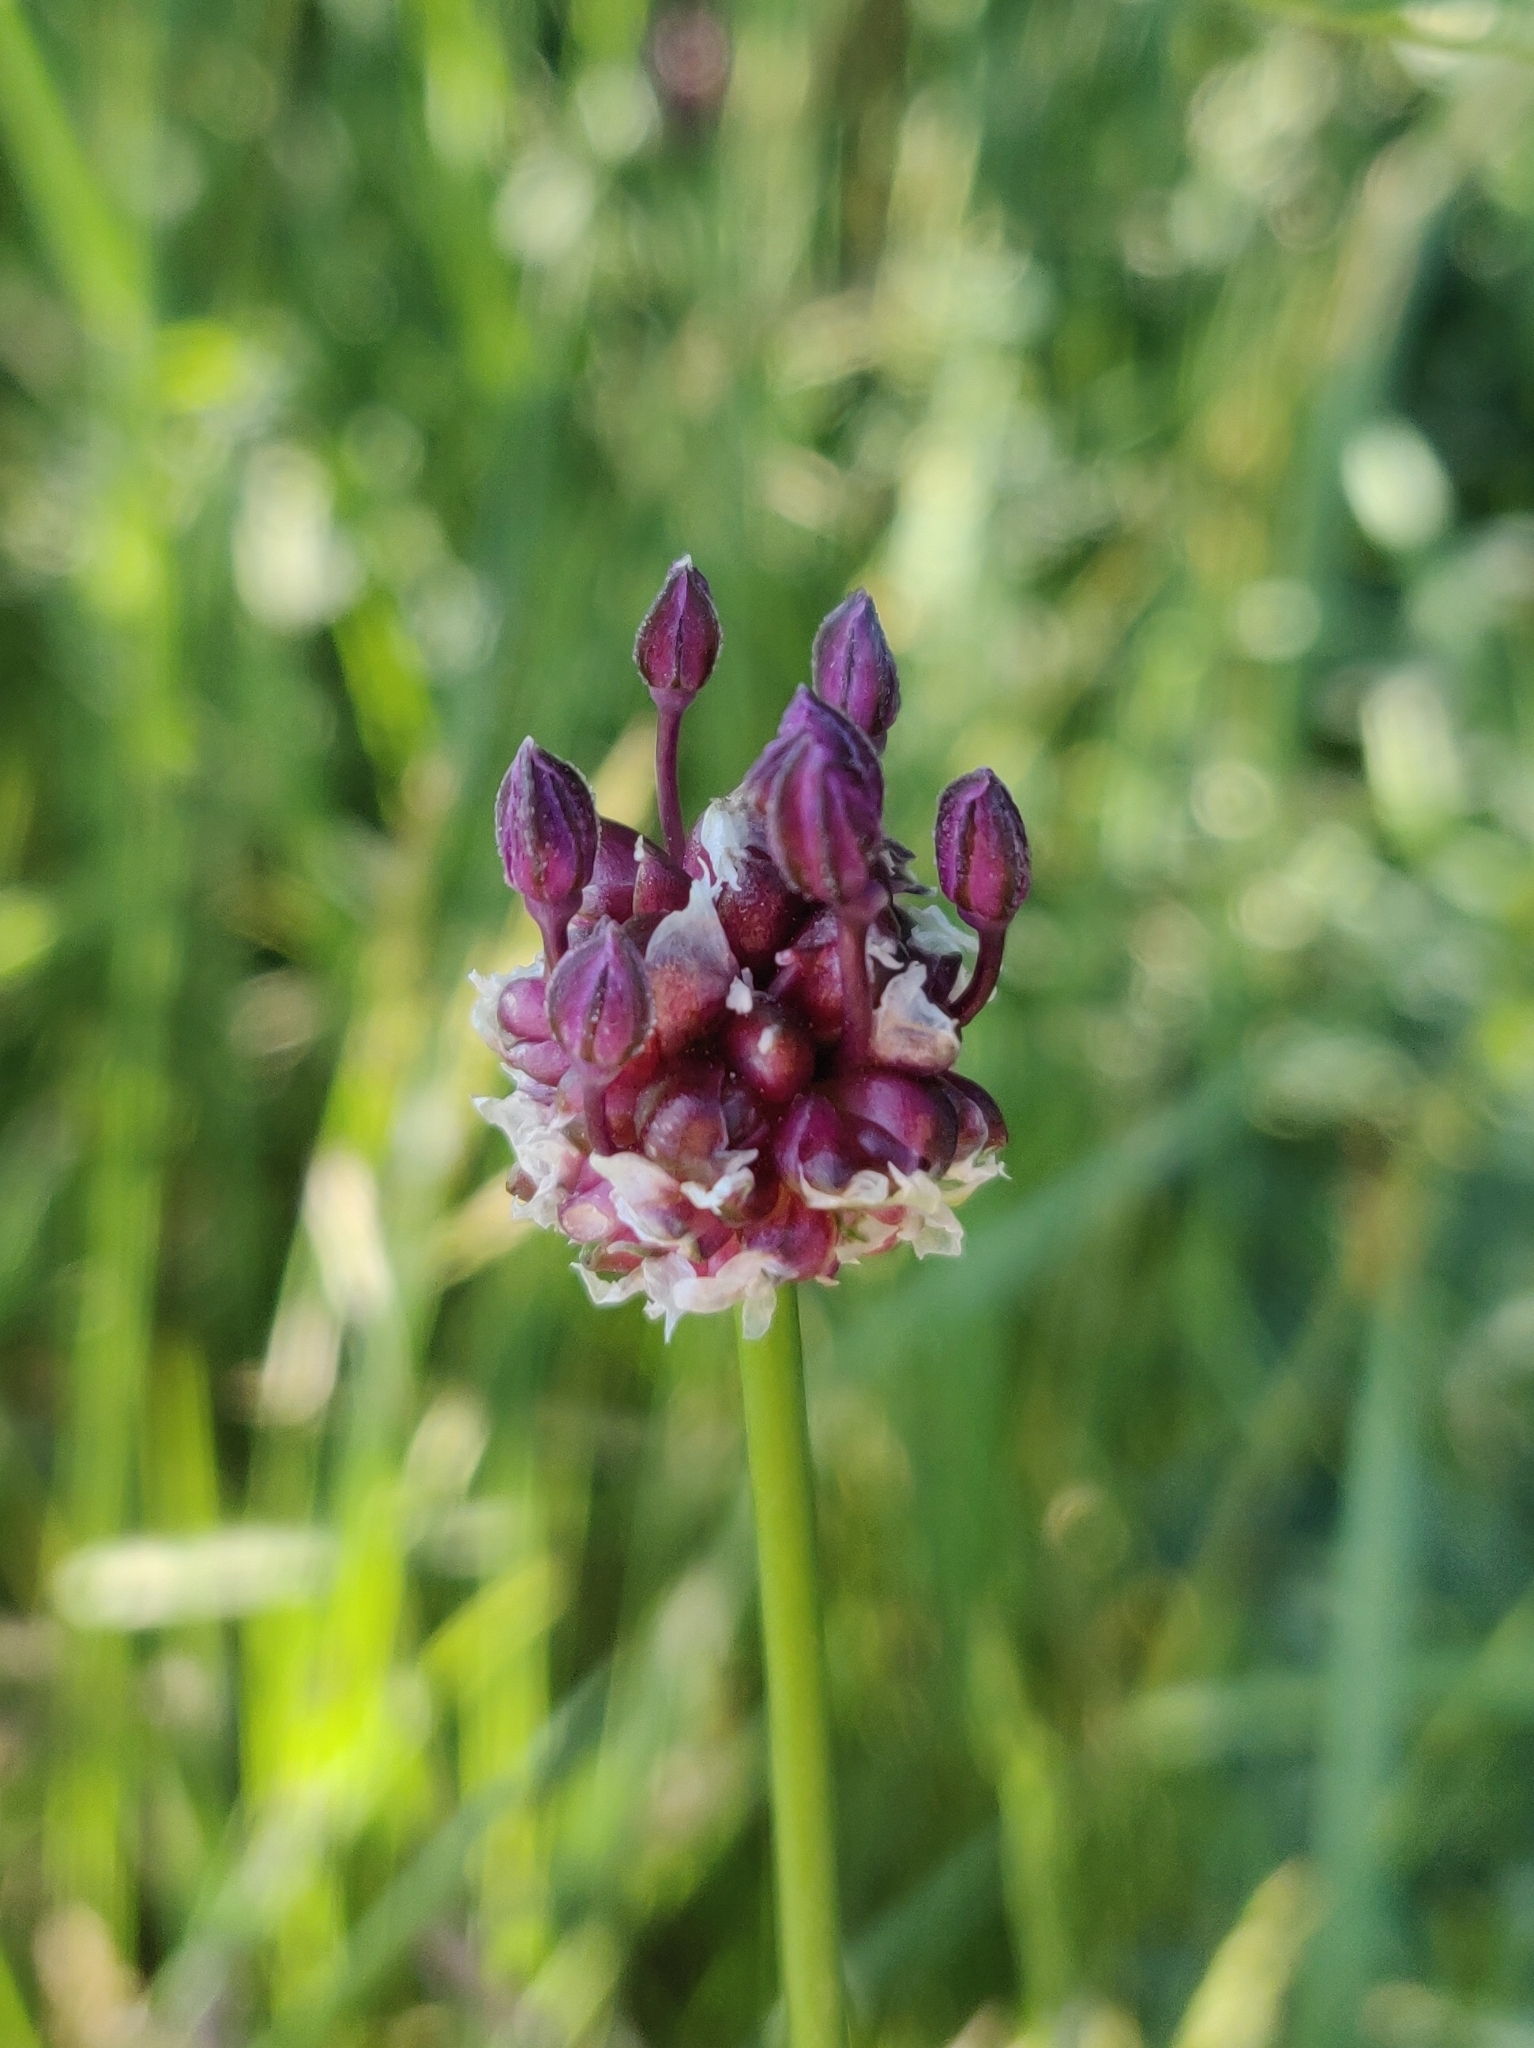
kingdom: Plantae
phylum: Tracheophyta
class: Liliopsida
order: Asparagales
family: Amaryllidaceae
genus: Allium
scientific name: Allium scorodoprasum
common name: Sand leek
